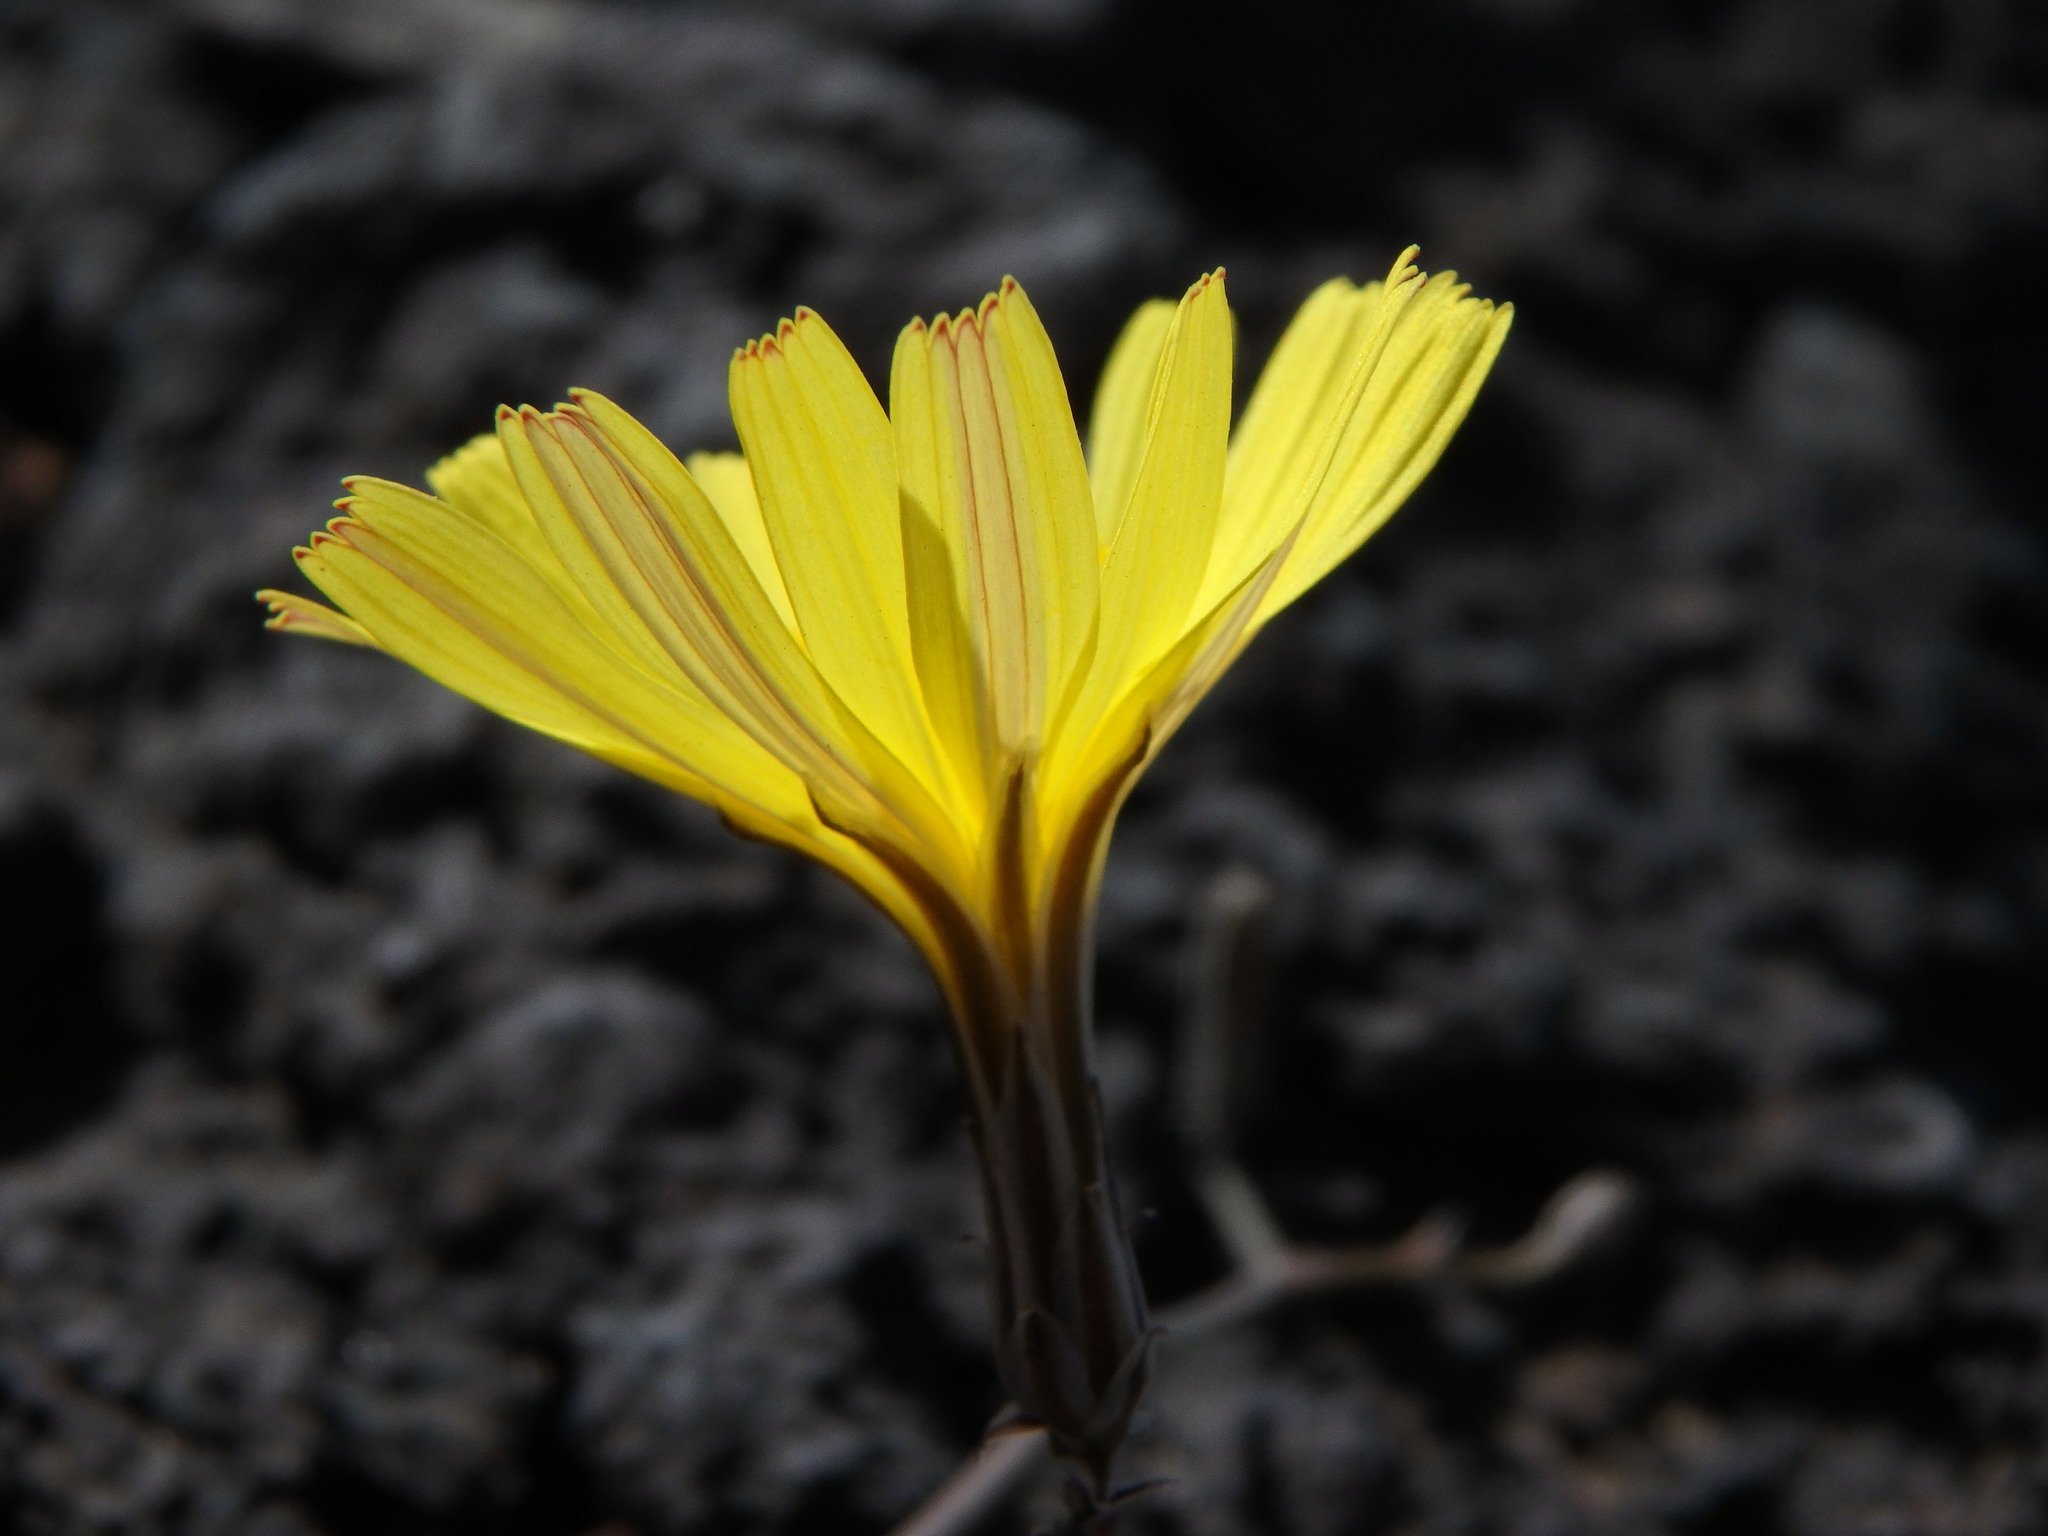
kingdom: Plantae
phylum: Tracheophyta
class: Magnoliopsida
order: Asterales
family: Asteraceae
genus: Launaea
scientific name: Launaea arborescens
